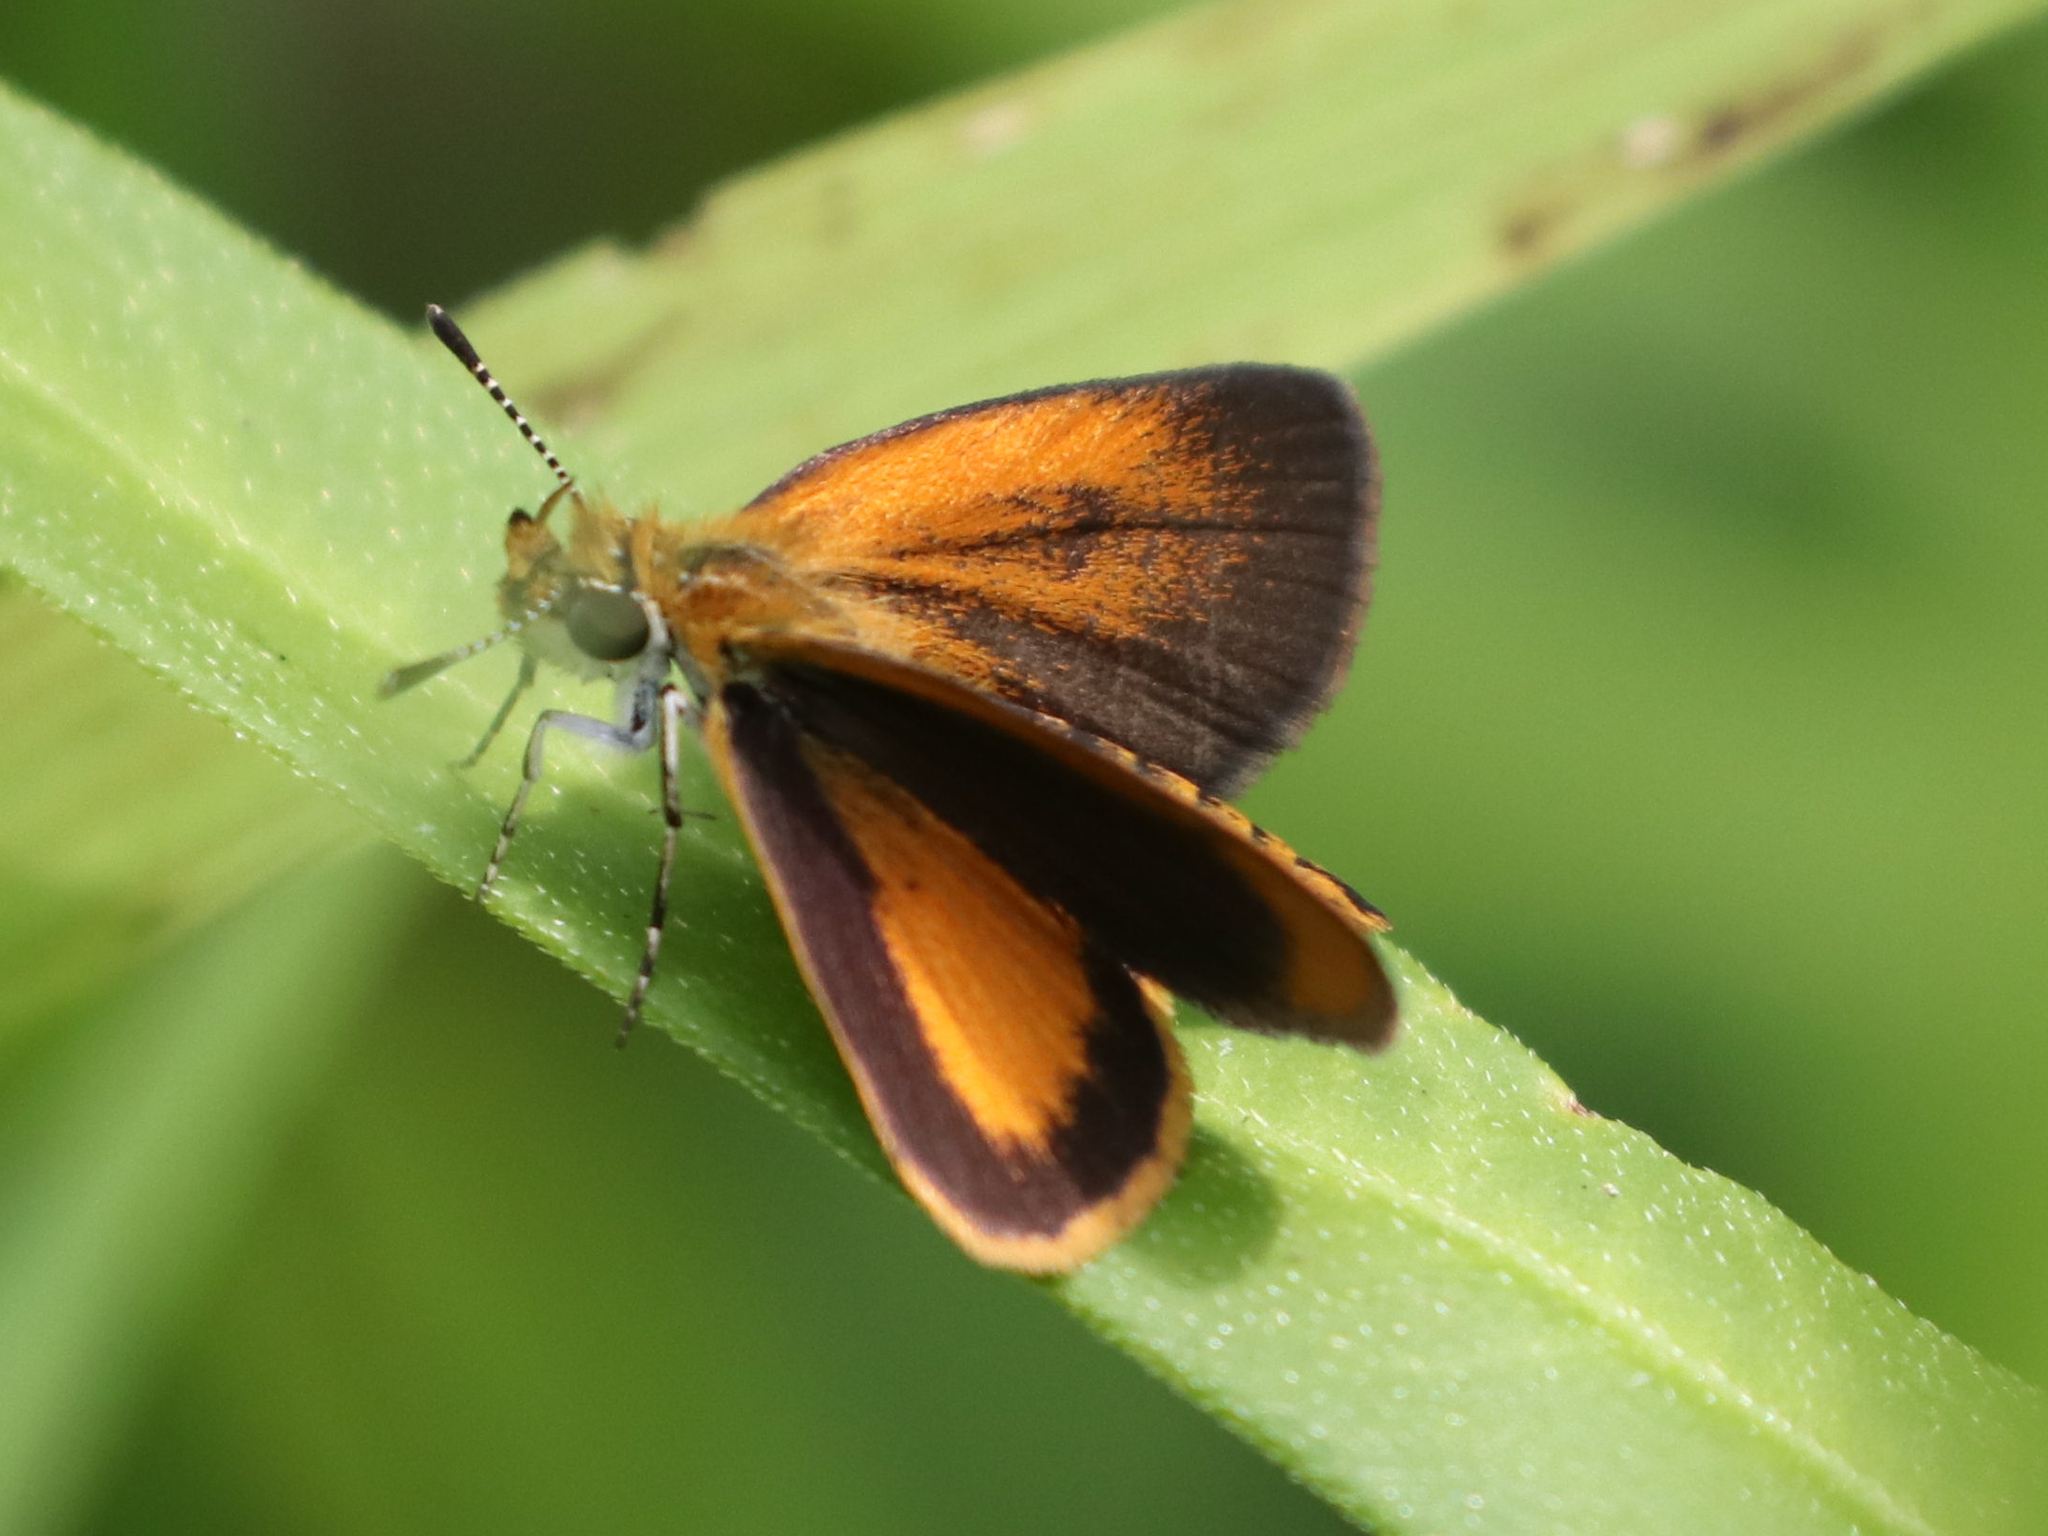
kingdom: Animalia
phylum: Arthropoda
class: Insecta
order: Lepidoptera
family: Hesperiidae
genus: Ancyloxypha
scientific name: Ancyloxypha numitor
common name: Least skipper
